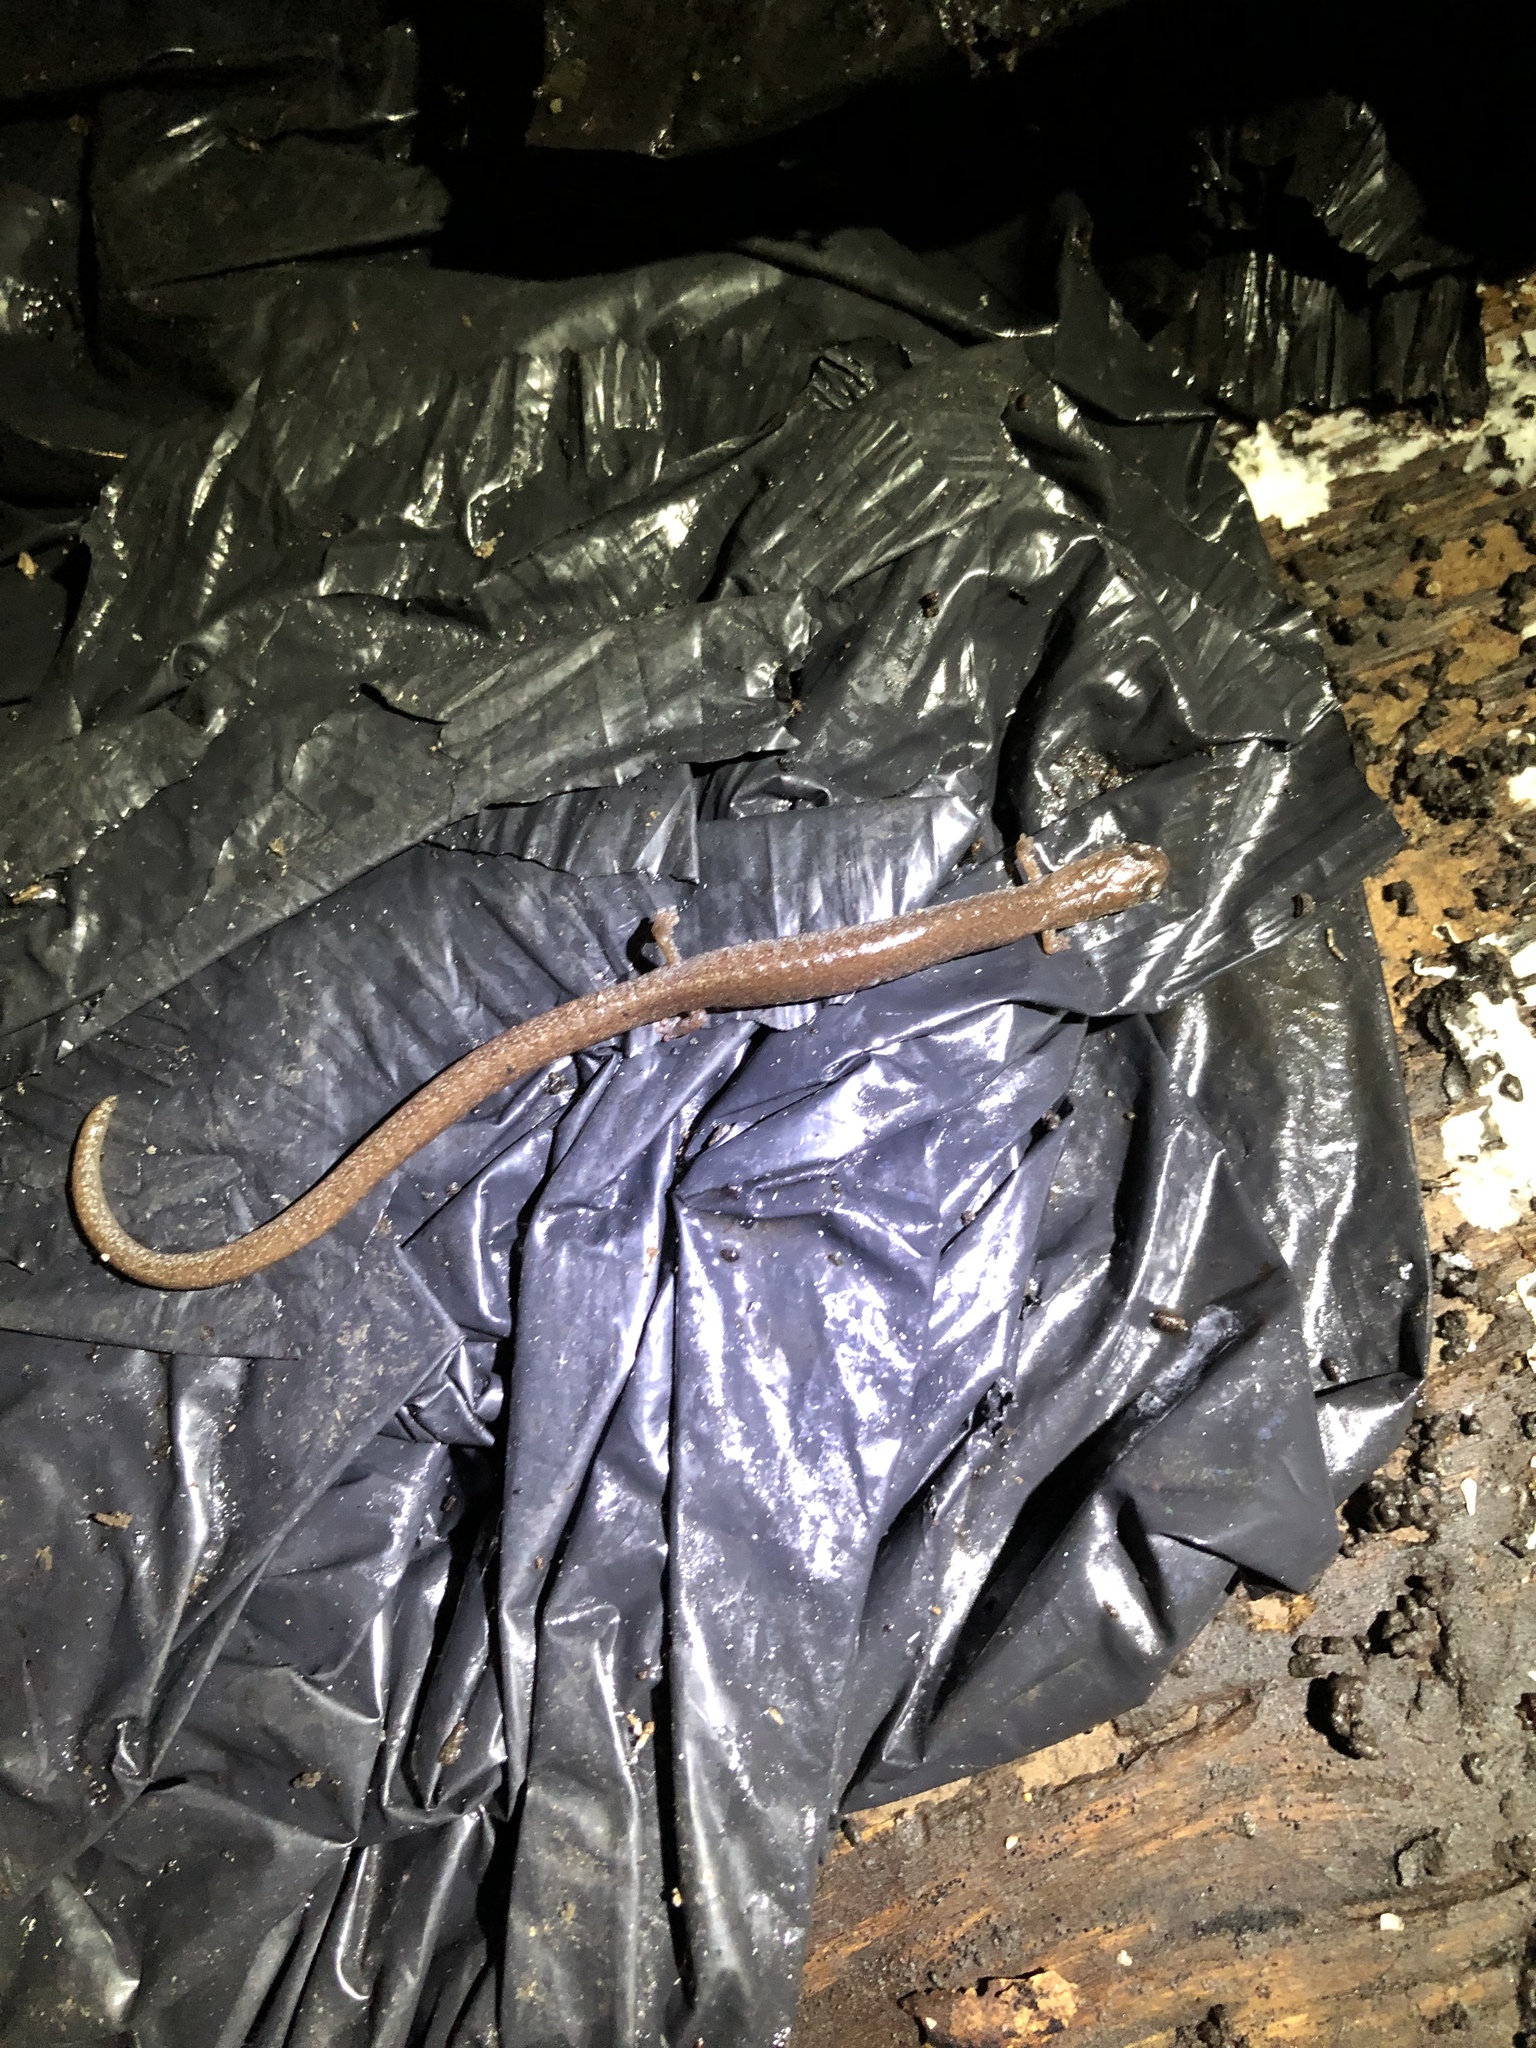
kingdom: Animalia
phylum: Chordata
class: Amphibia
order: Caudata
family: Plethodontidae
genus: Batrachoseps
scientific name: Batrachoseps major
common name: Garden slender salamander
